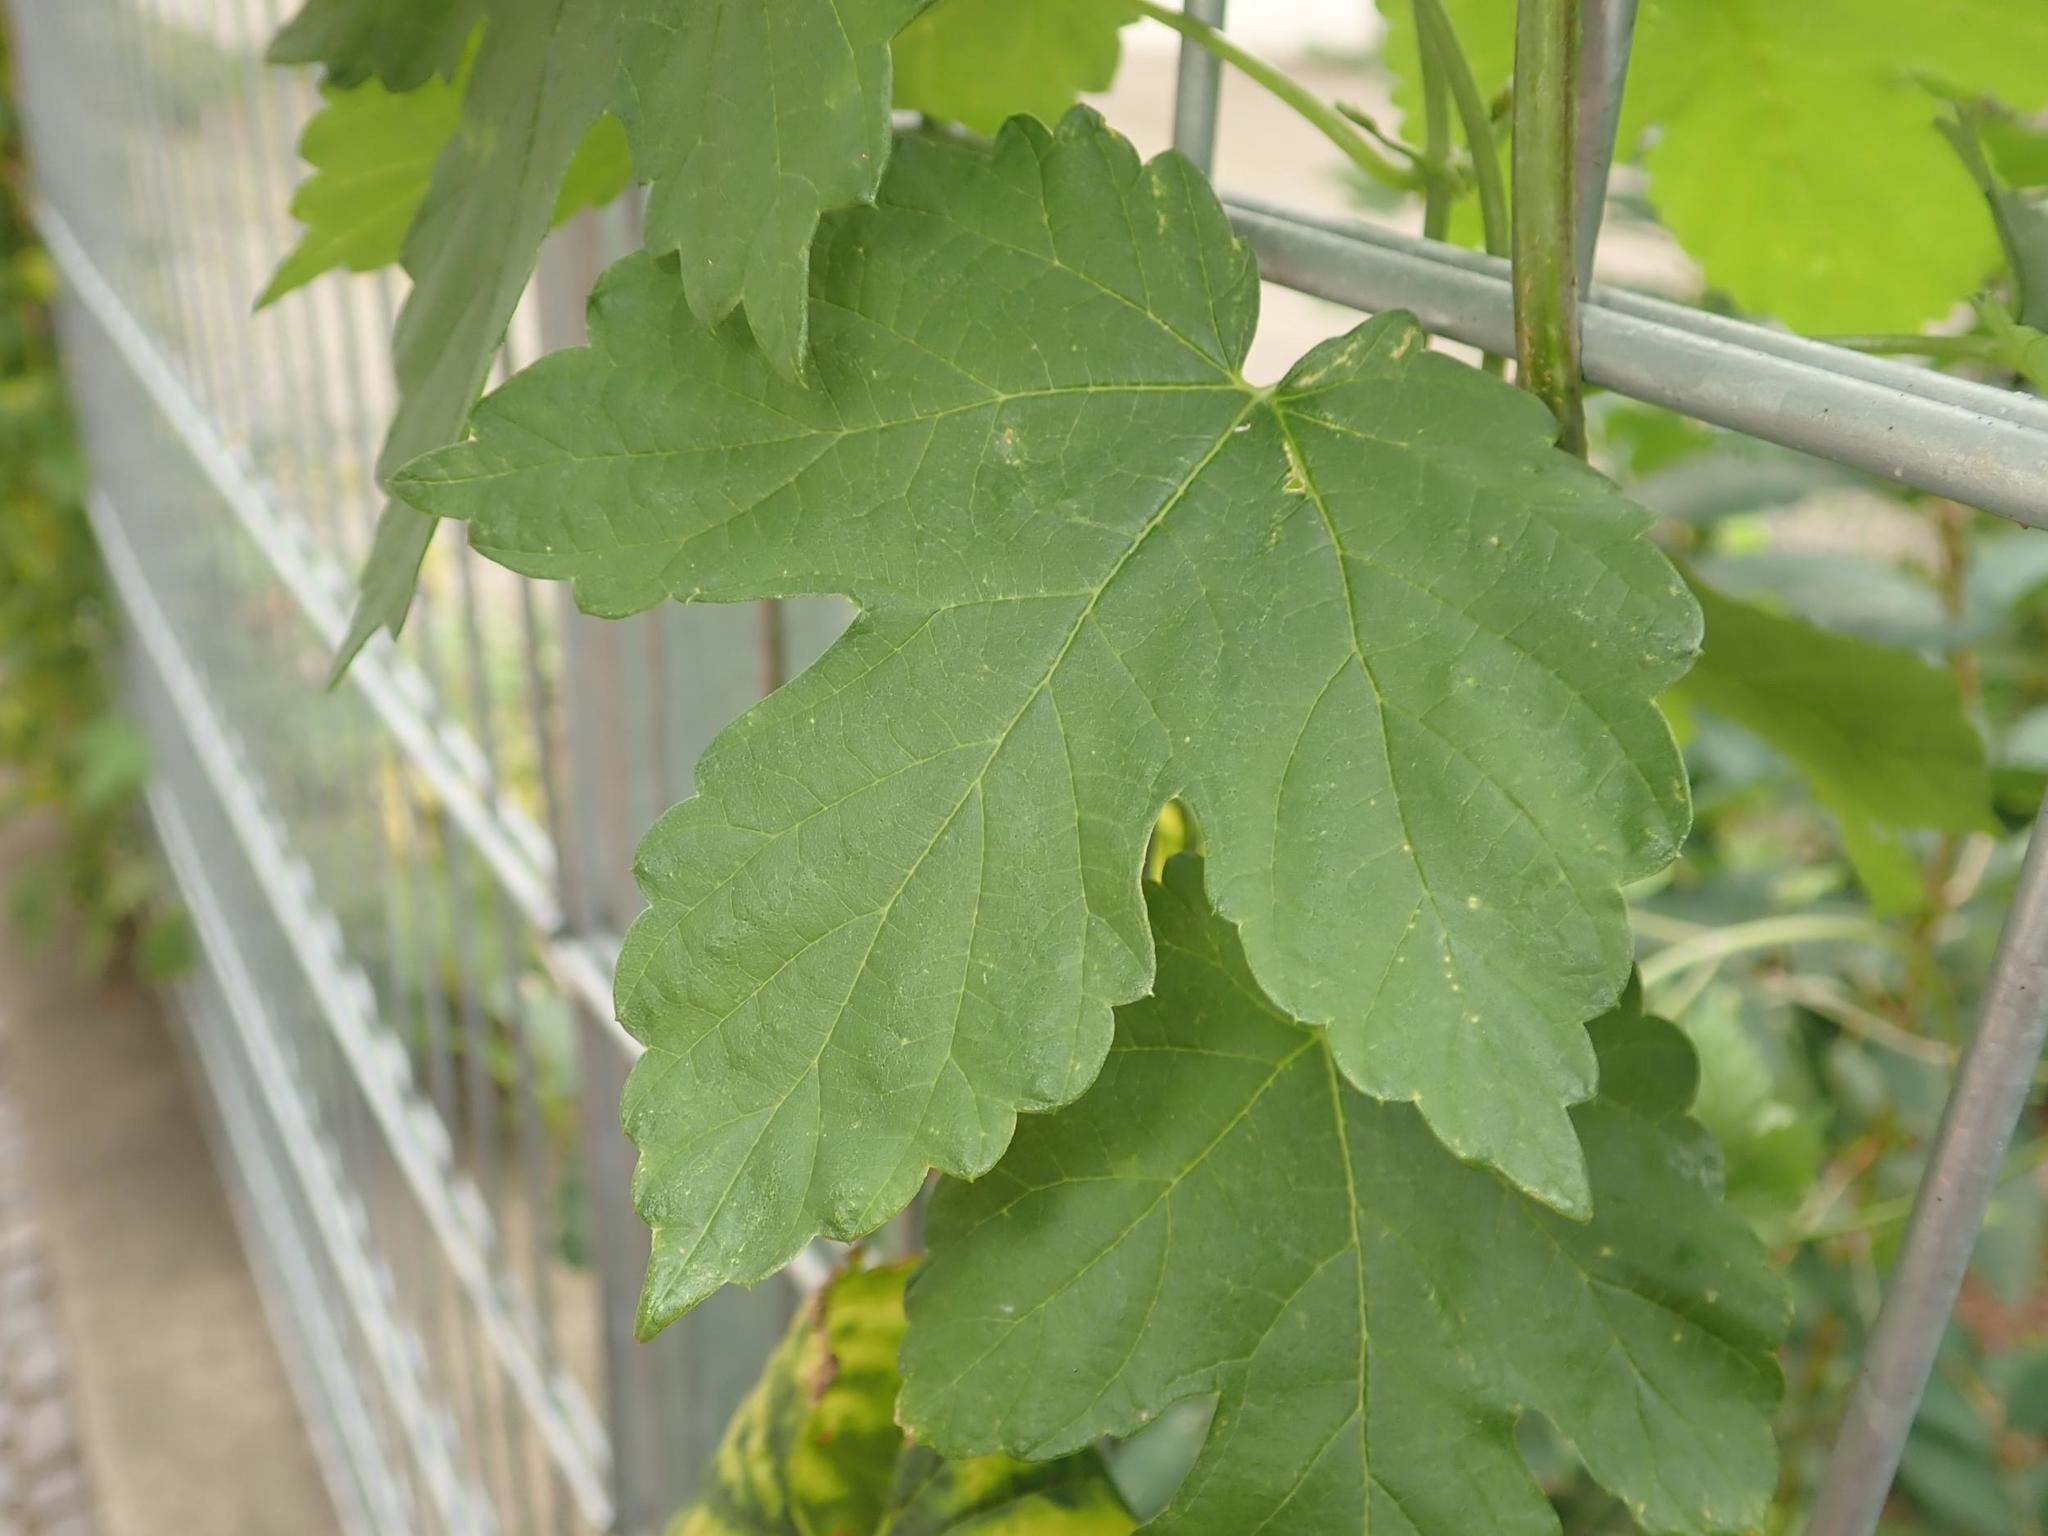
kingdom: Plantae
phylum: Tracheophyta
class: Magnoliopsida
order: Rosales
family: Cannabaceae
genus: Humulus
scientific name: Humulus lupulus
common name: Hop
